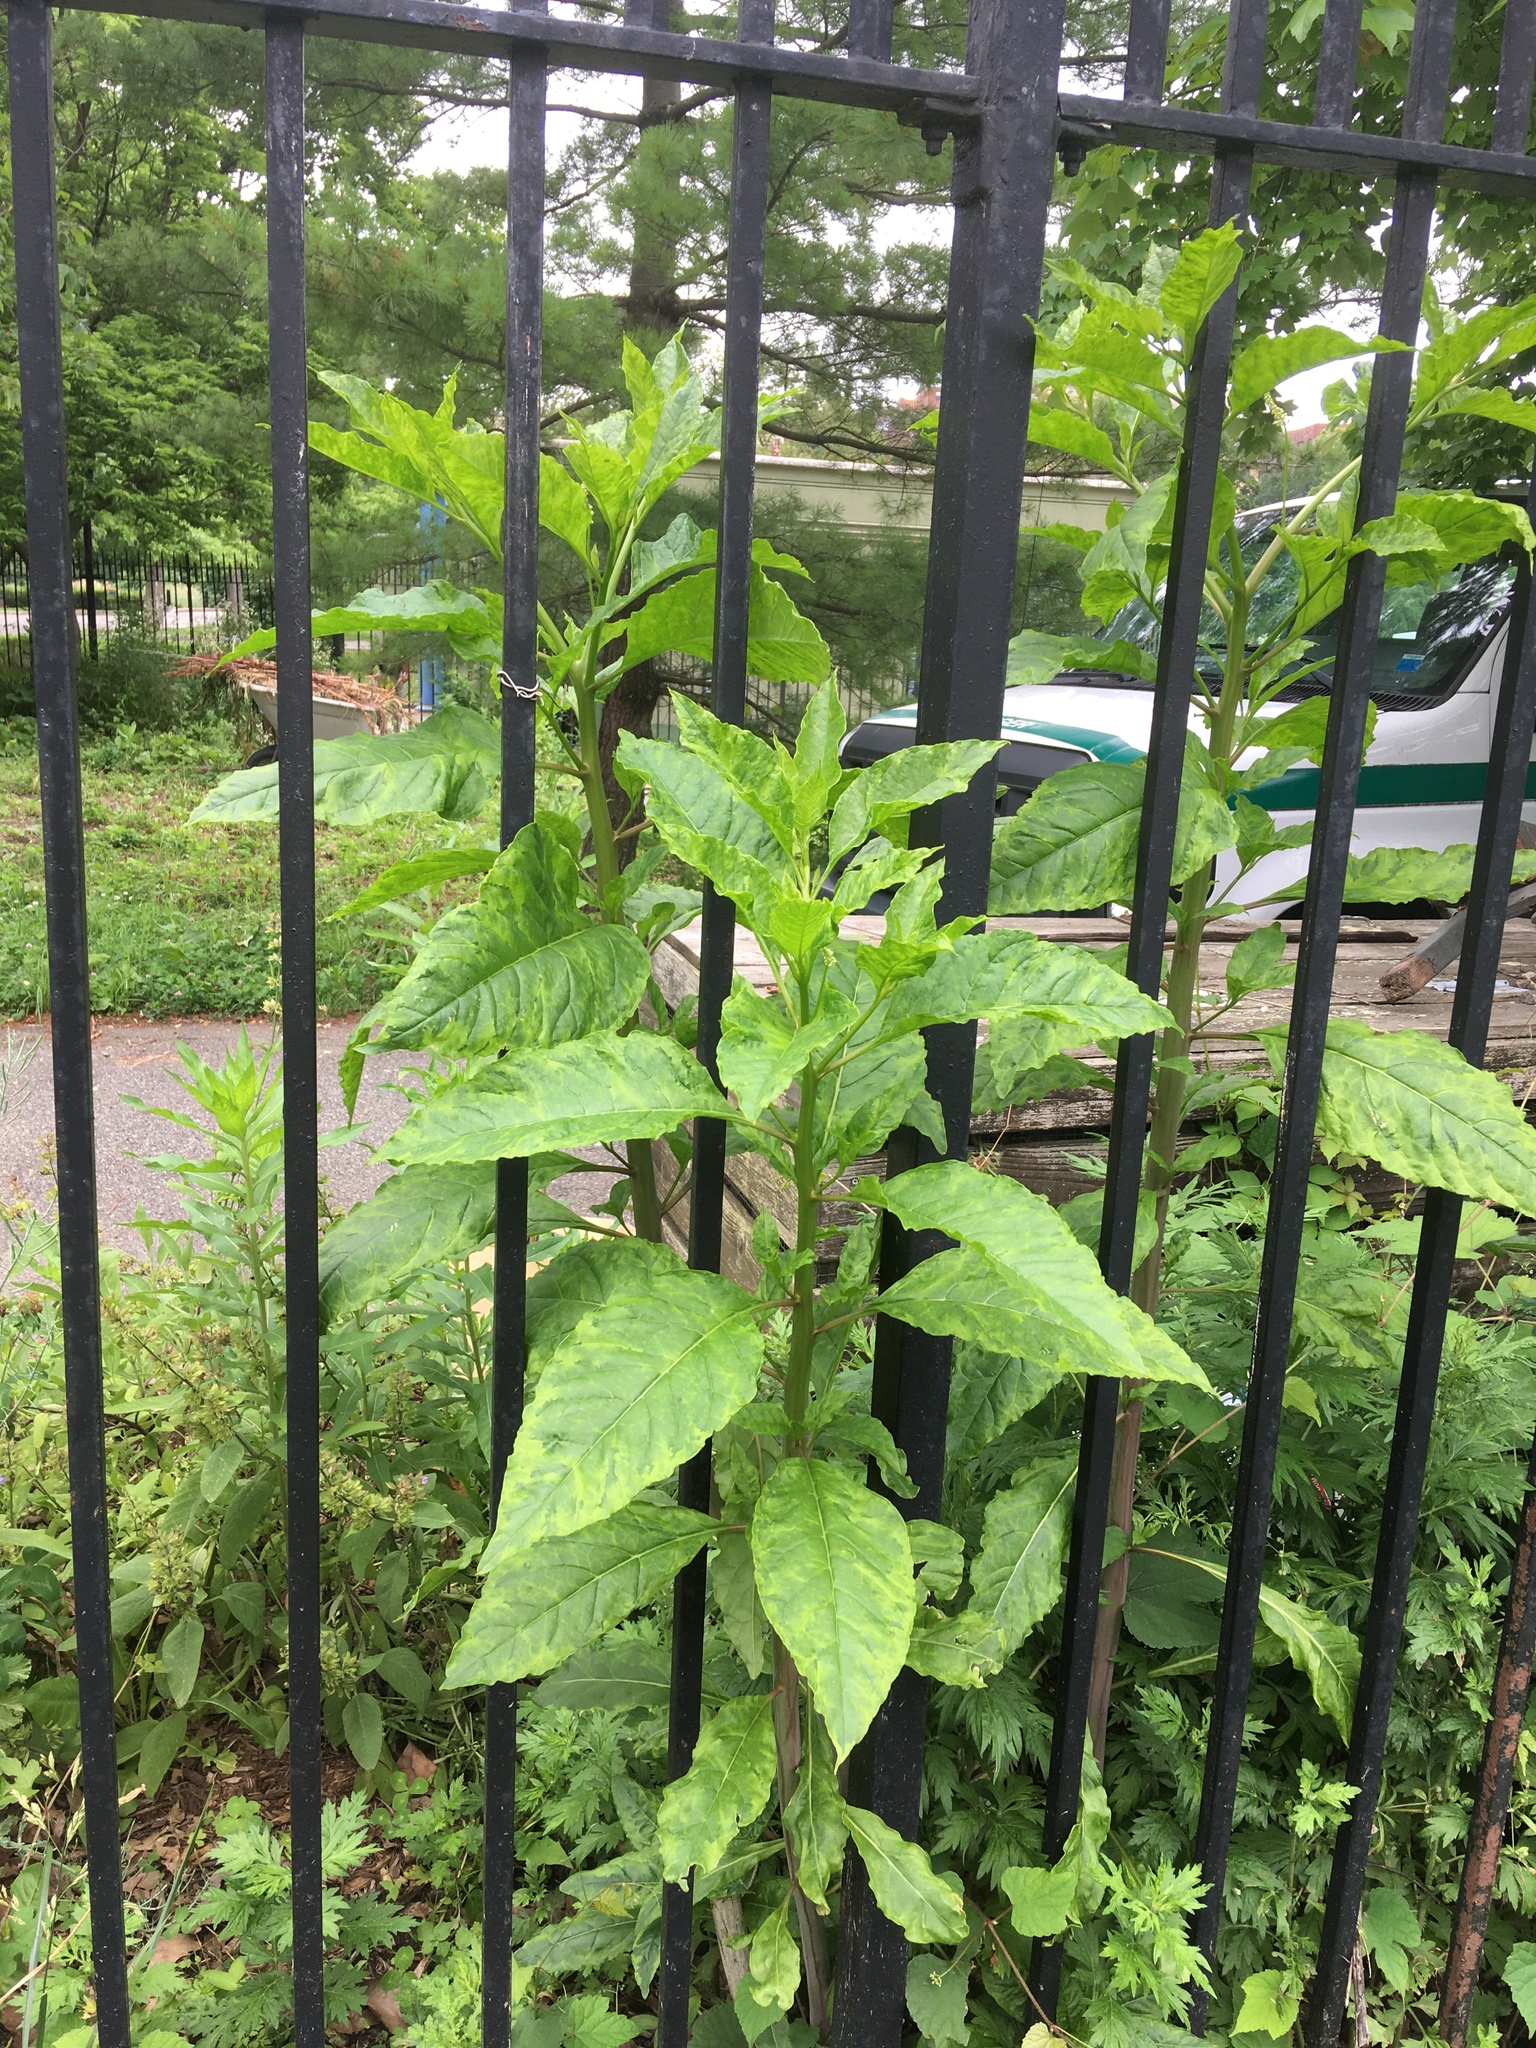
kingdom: Plantae
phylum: Tracheophyta
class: Magnoliopsida
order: Caryophyllales
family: Phytolaccaceae
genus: Phytolacca
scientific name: Phytolacca americana
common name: American pokeweed
